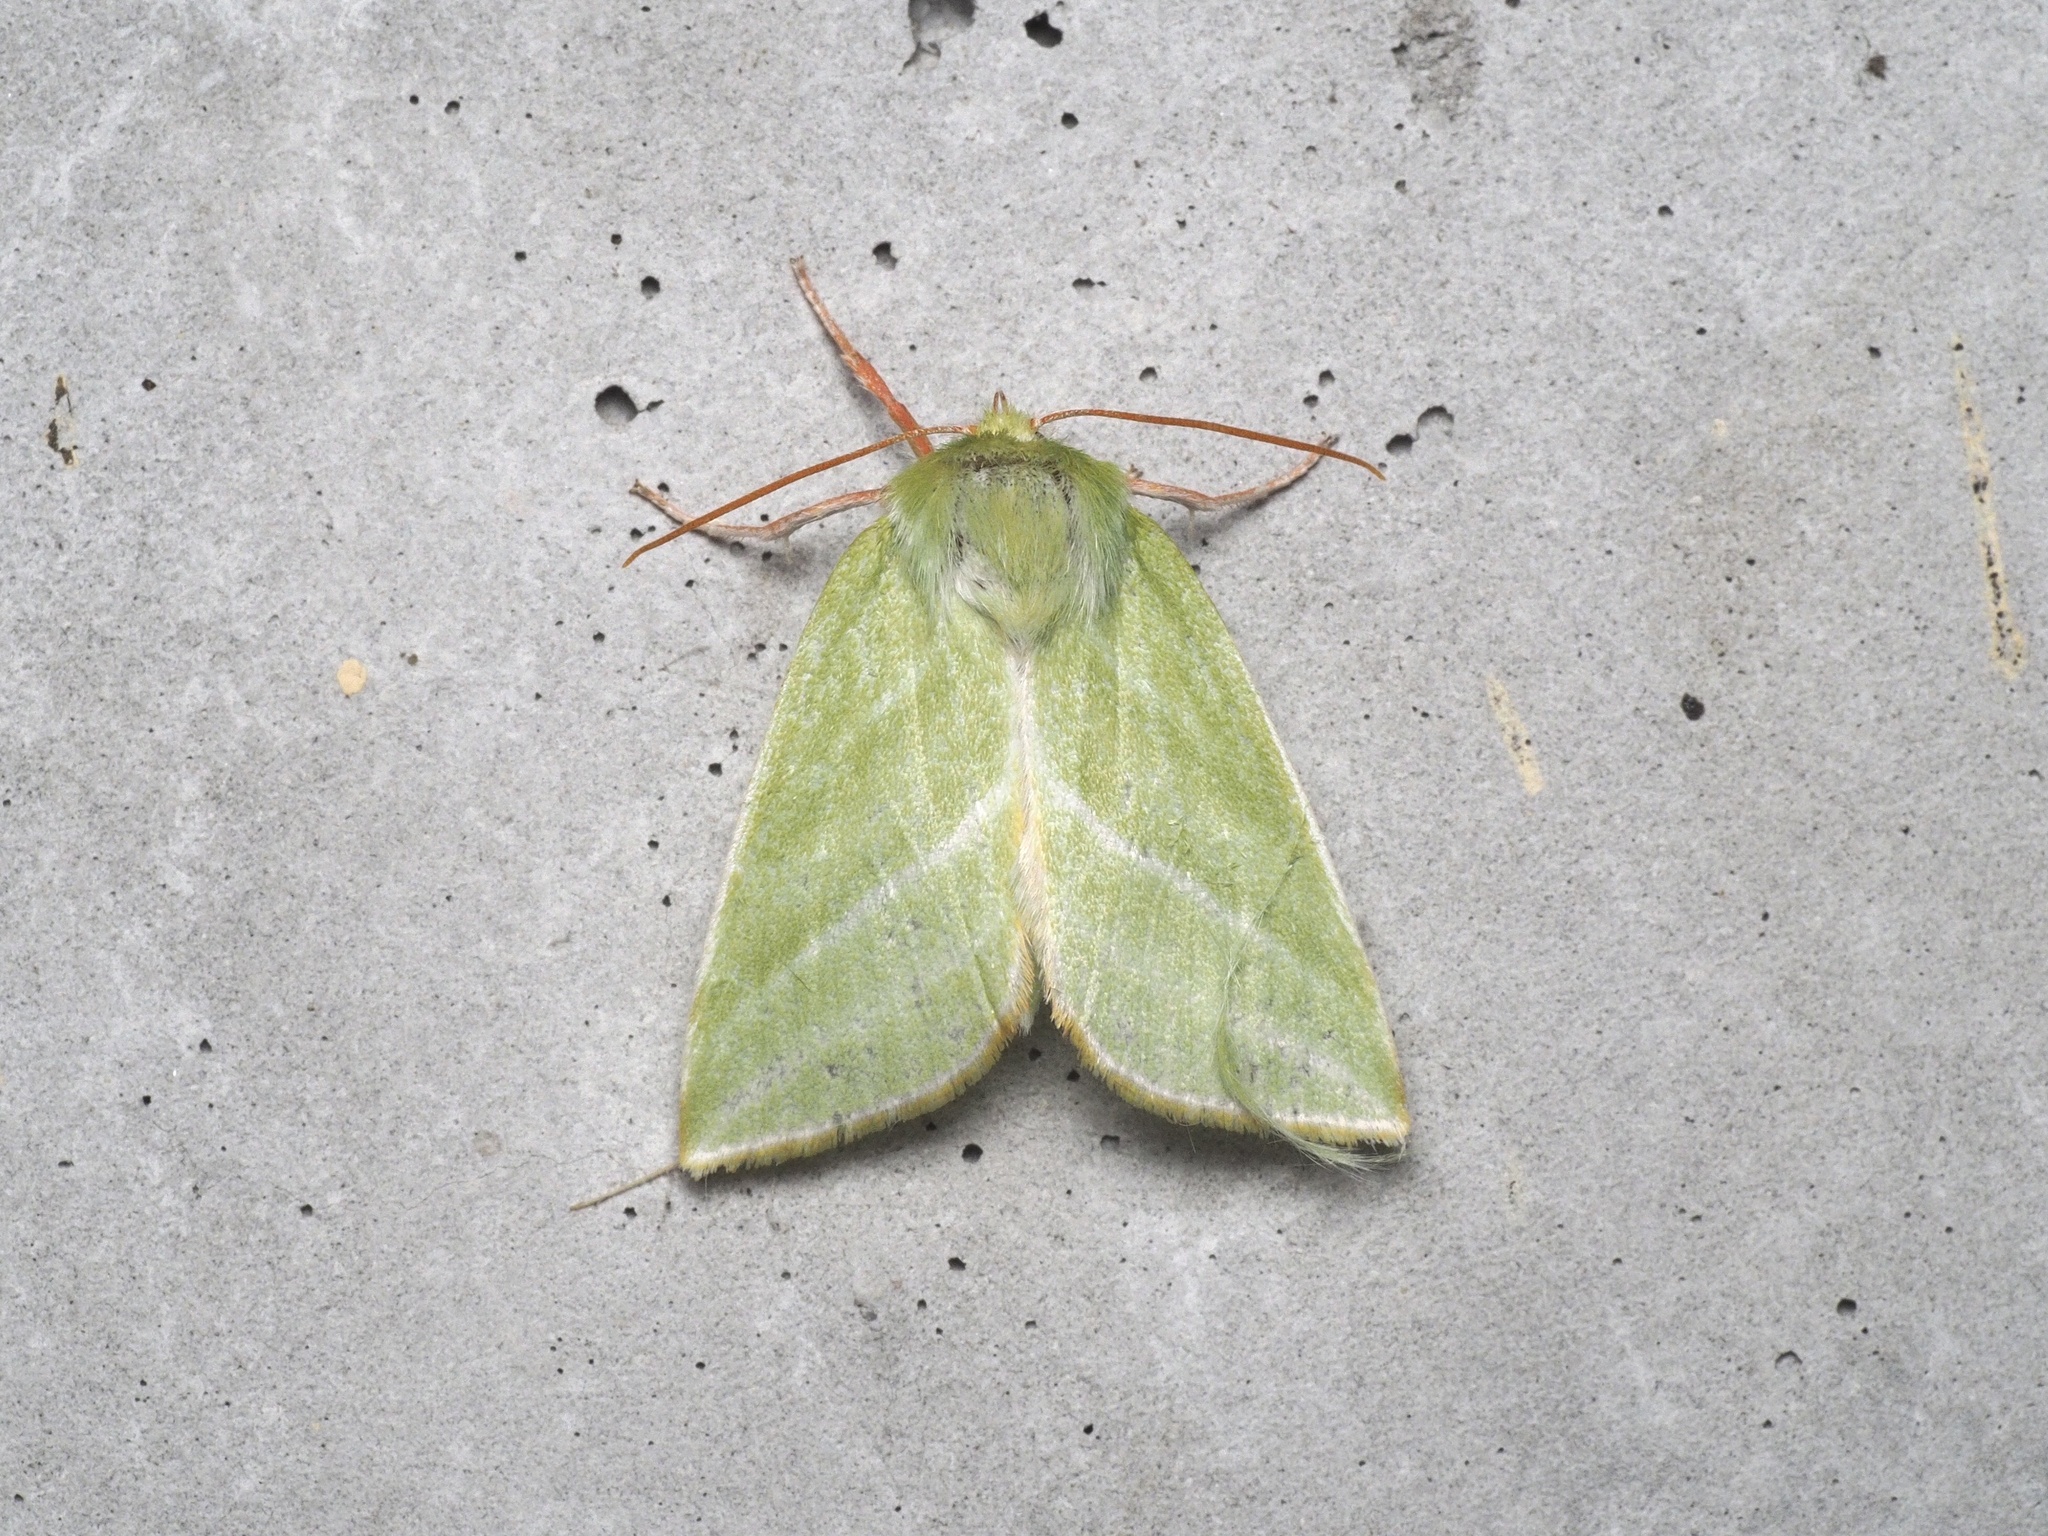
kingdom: Animalia
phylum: Arthropoda
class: Insecta
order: Lepidoptera
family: Nolidae
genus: Pseudoips
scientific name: Pseudoips prasinana
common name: Green silver-lines
